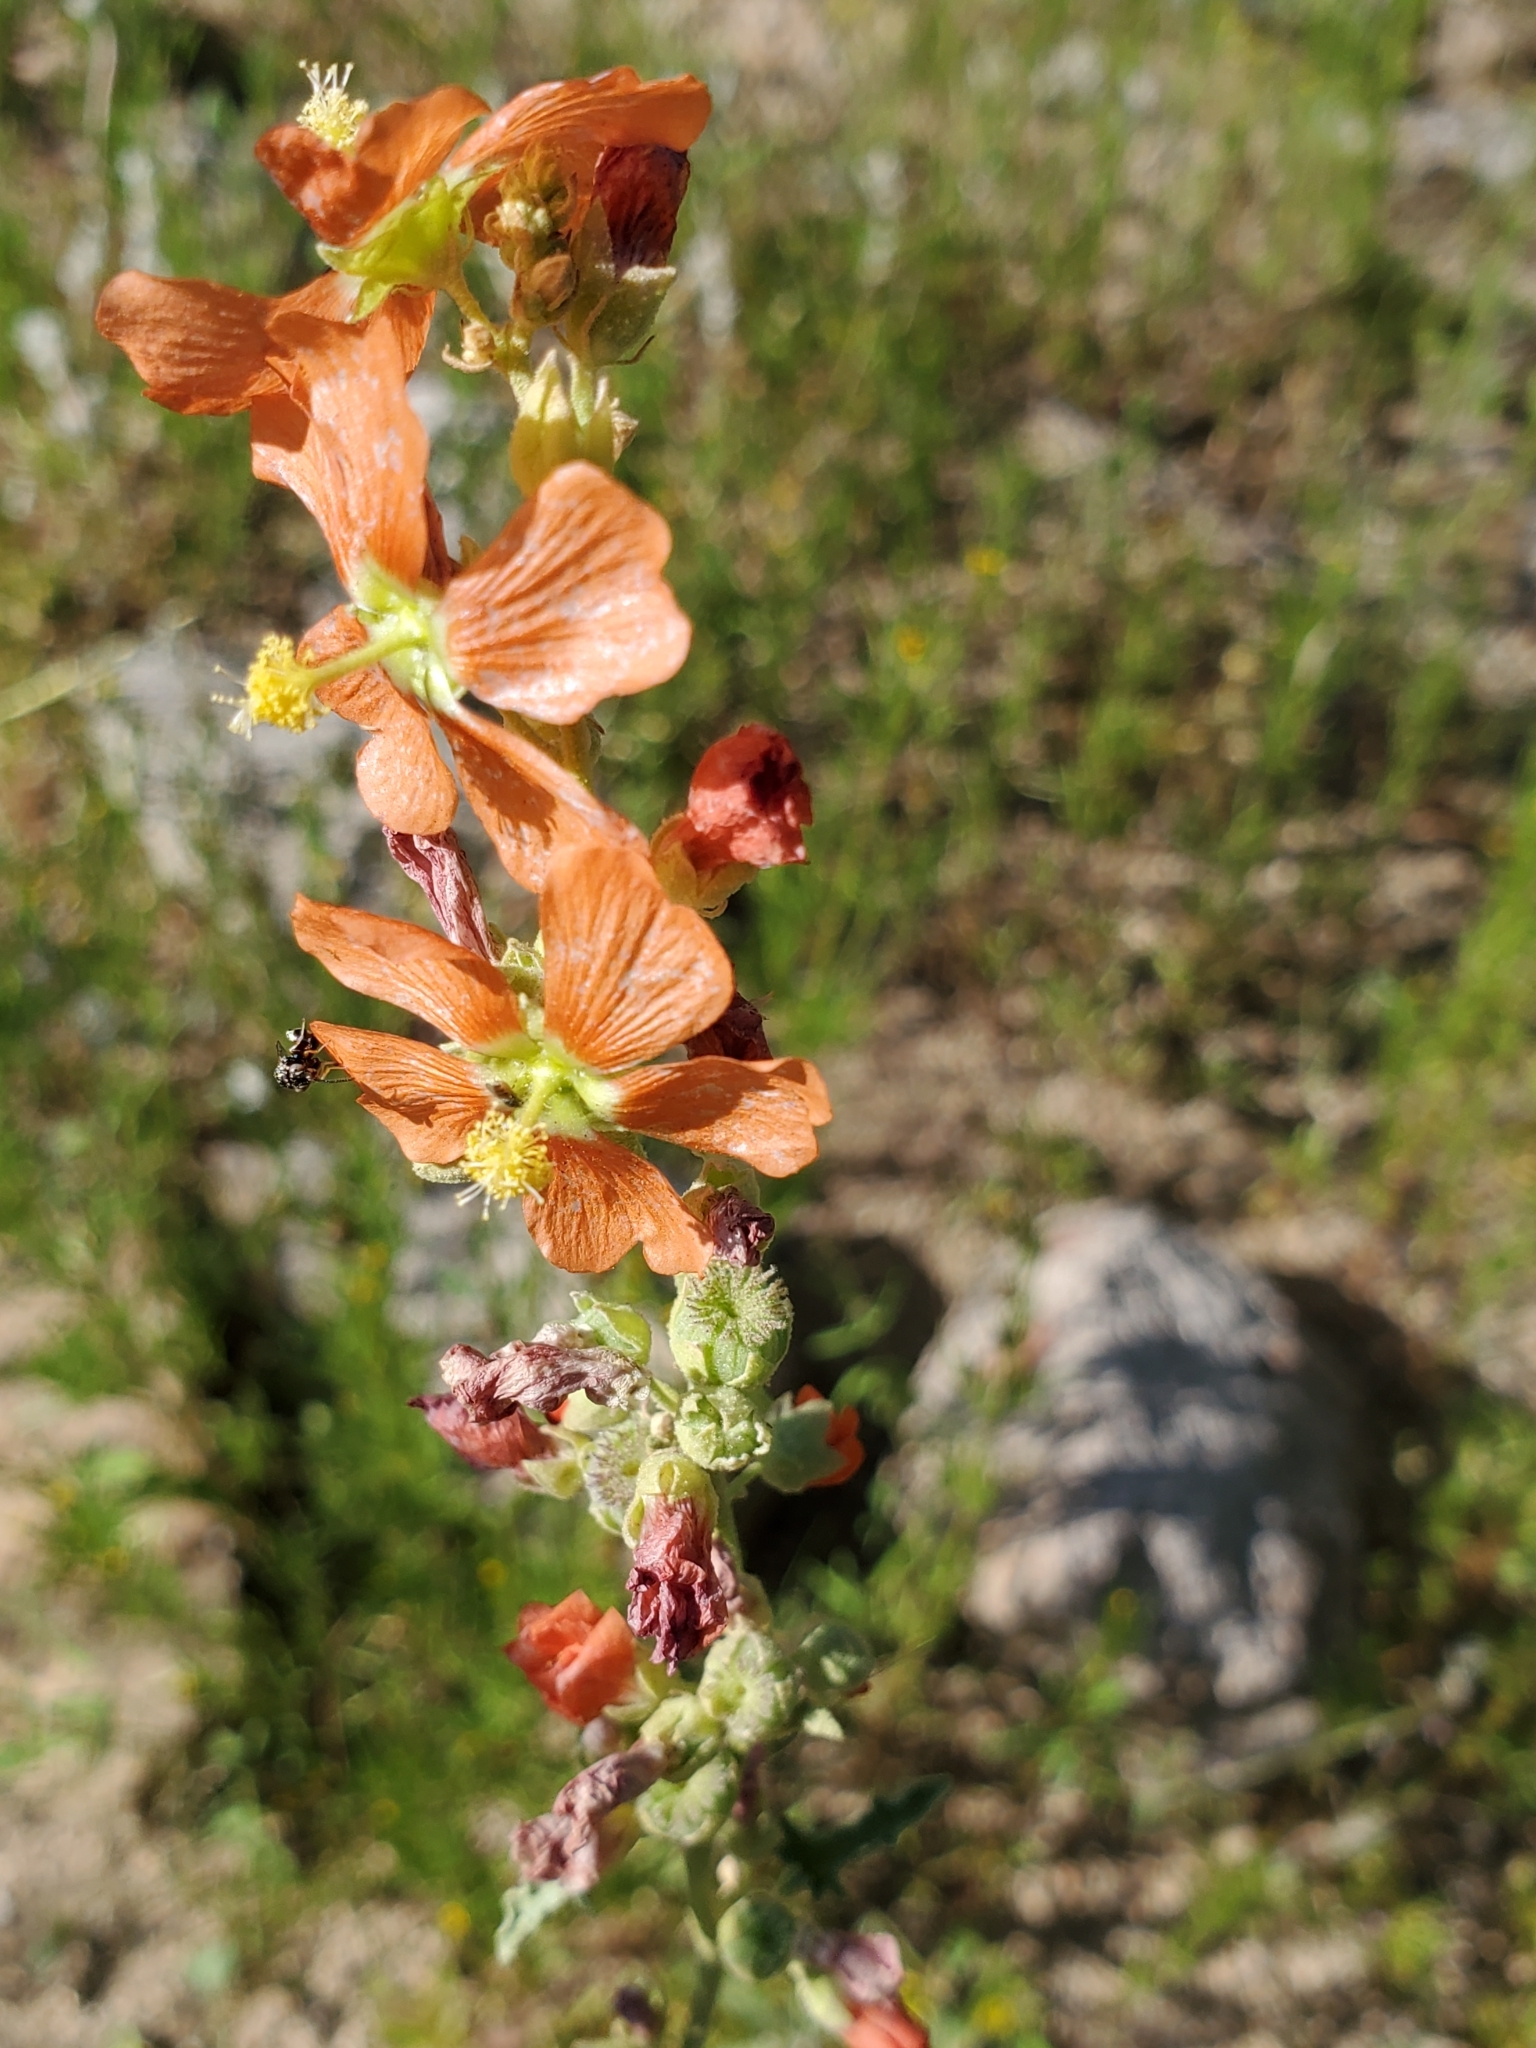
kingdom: Plantae
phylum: Tracheophyta
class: Magnoliopsida
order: Malvales
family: Malvaceae
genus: Sphaeralcea
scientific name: Sphaeralcea incana
